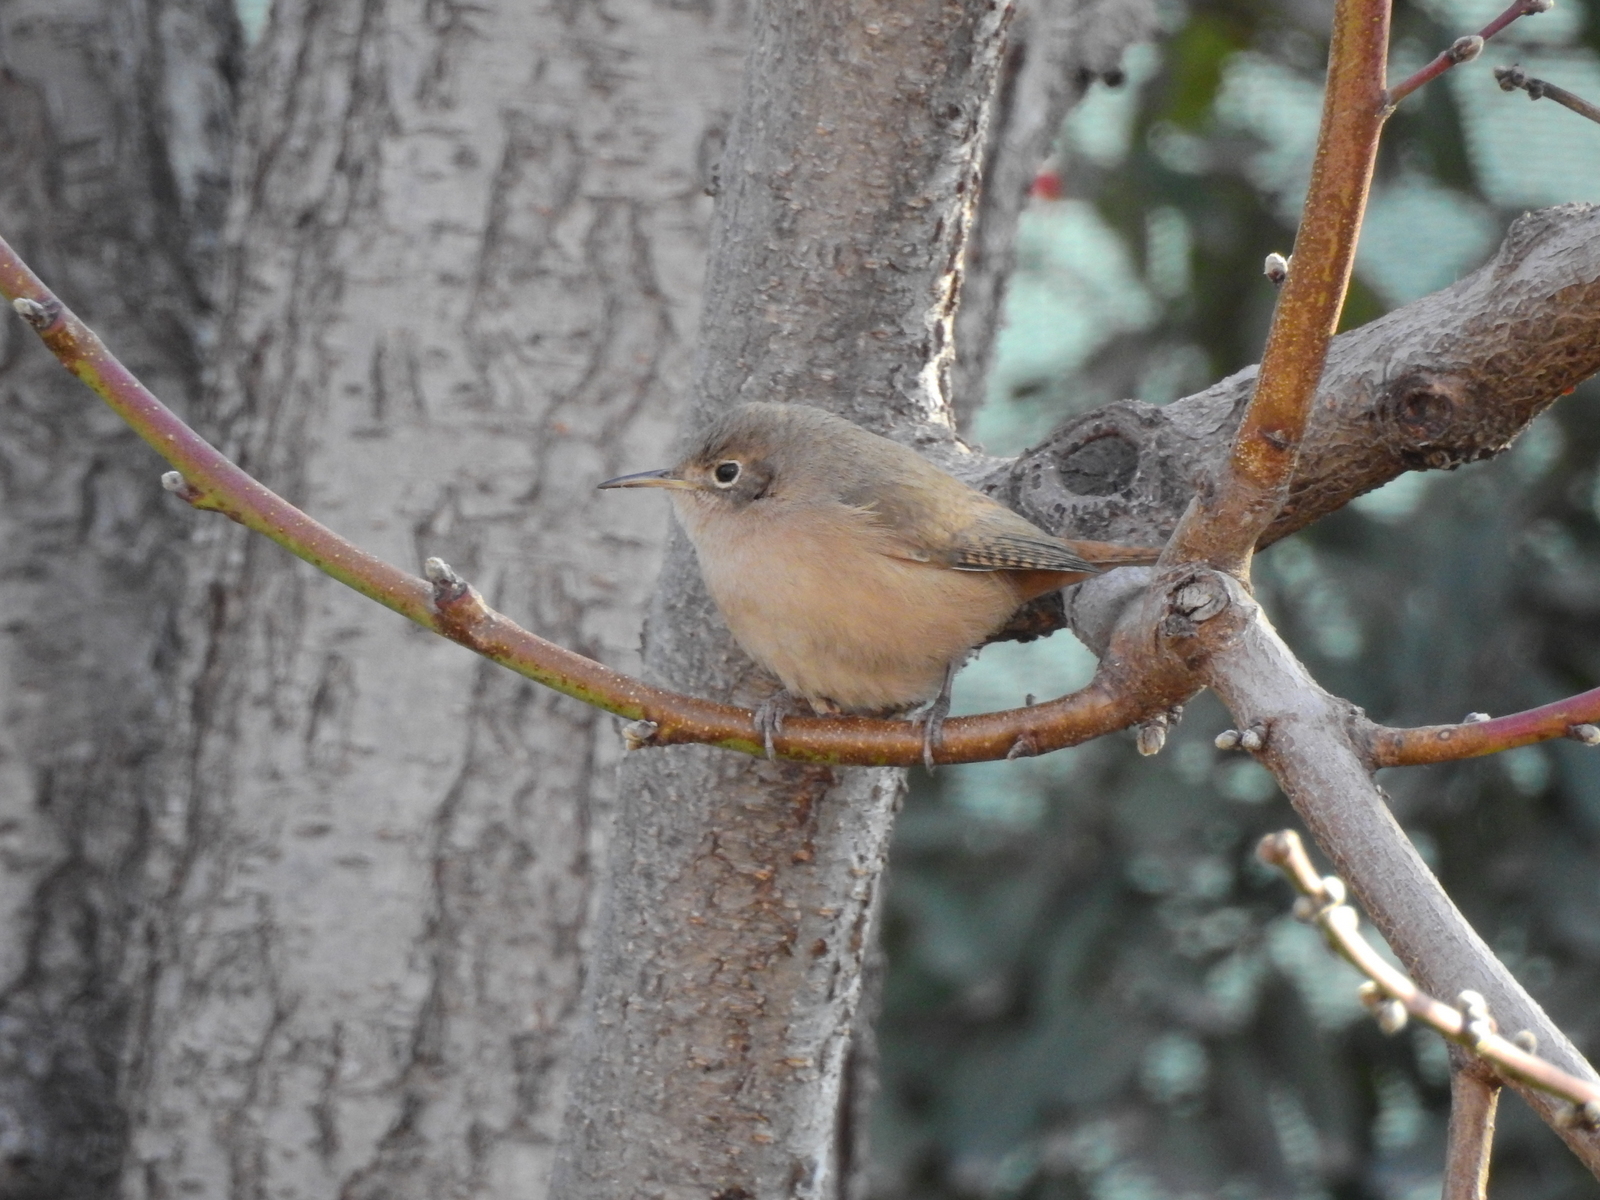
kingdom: Animalia
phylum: Chordata
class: Aves
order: Passeriformes
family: Troglodytidae
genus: Troglodytes
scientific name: Troglodytes aedon
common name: House wren
